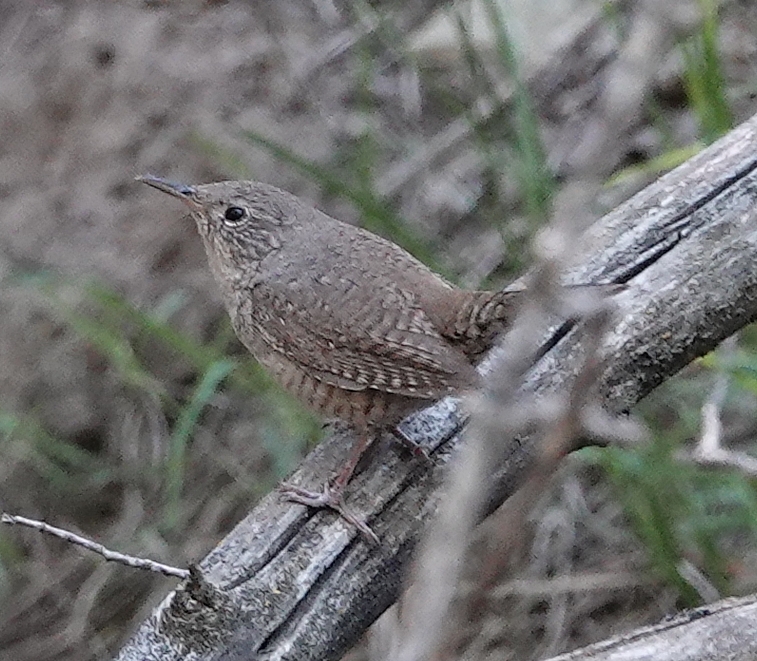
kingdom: Animalia
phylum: Chordata
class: Aves
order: Passeriformes
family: Troglodytidae
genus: Troglodytes
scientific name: Troglodytes aedon
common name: House wren
